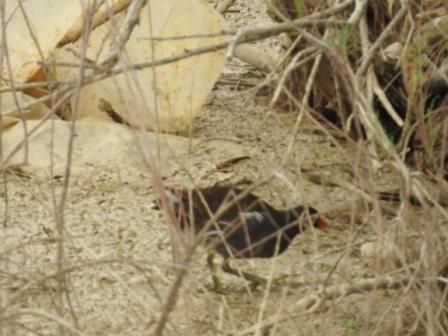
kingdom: Animalia
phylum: Chordata
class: Aves
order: Gruiformes
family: Rallidae
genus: Gallinula
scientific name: Gallinula chloropus
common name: Common moorhen
